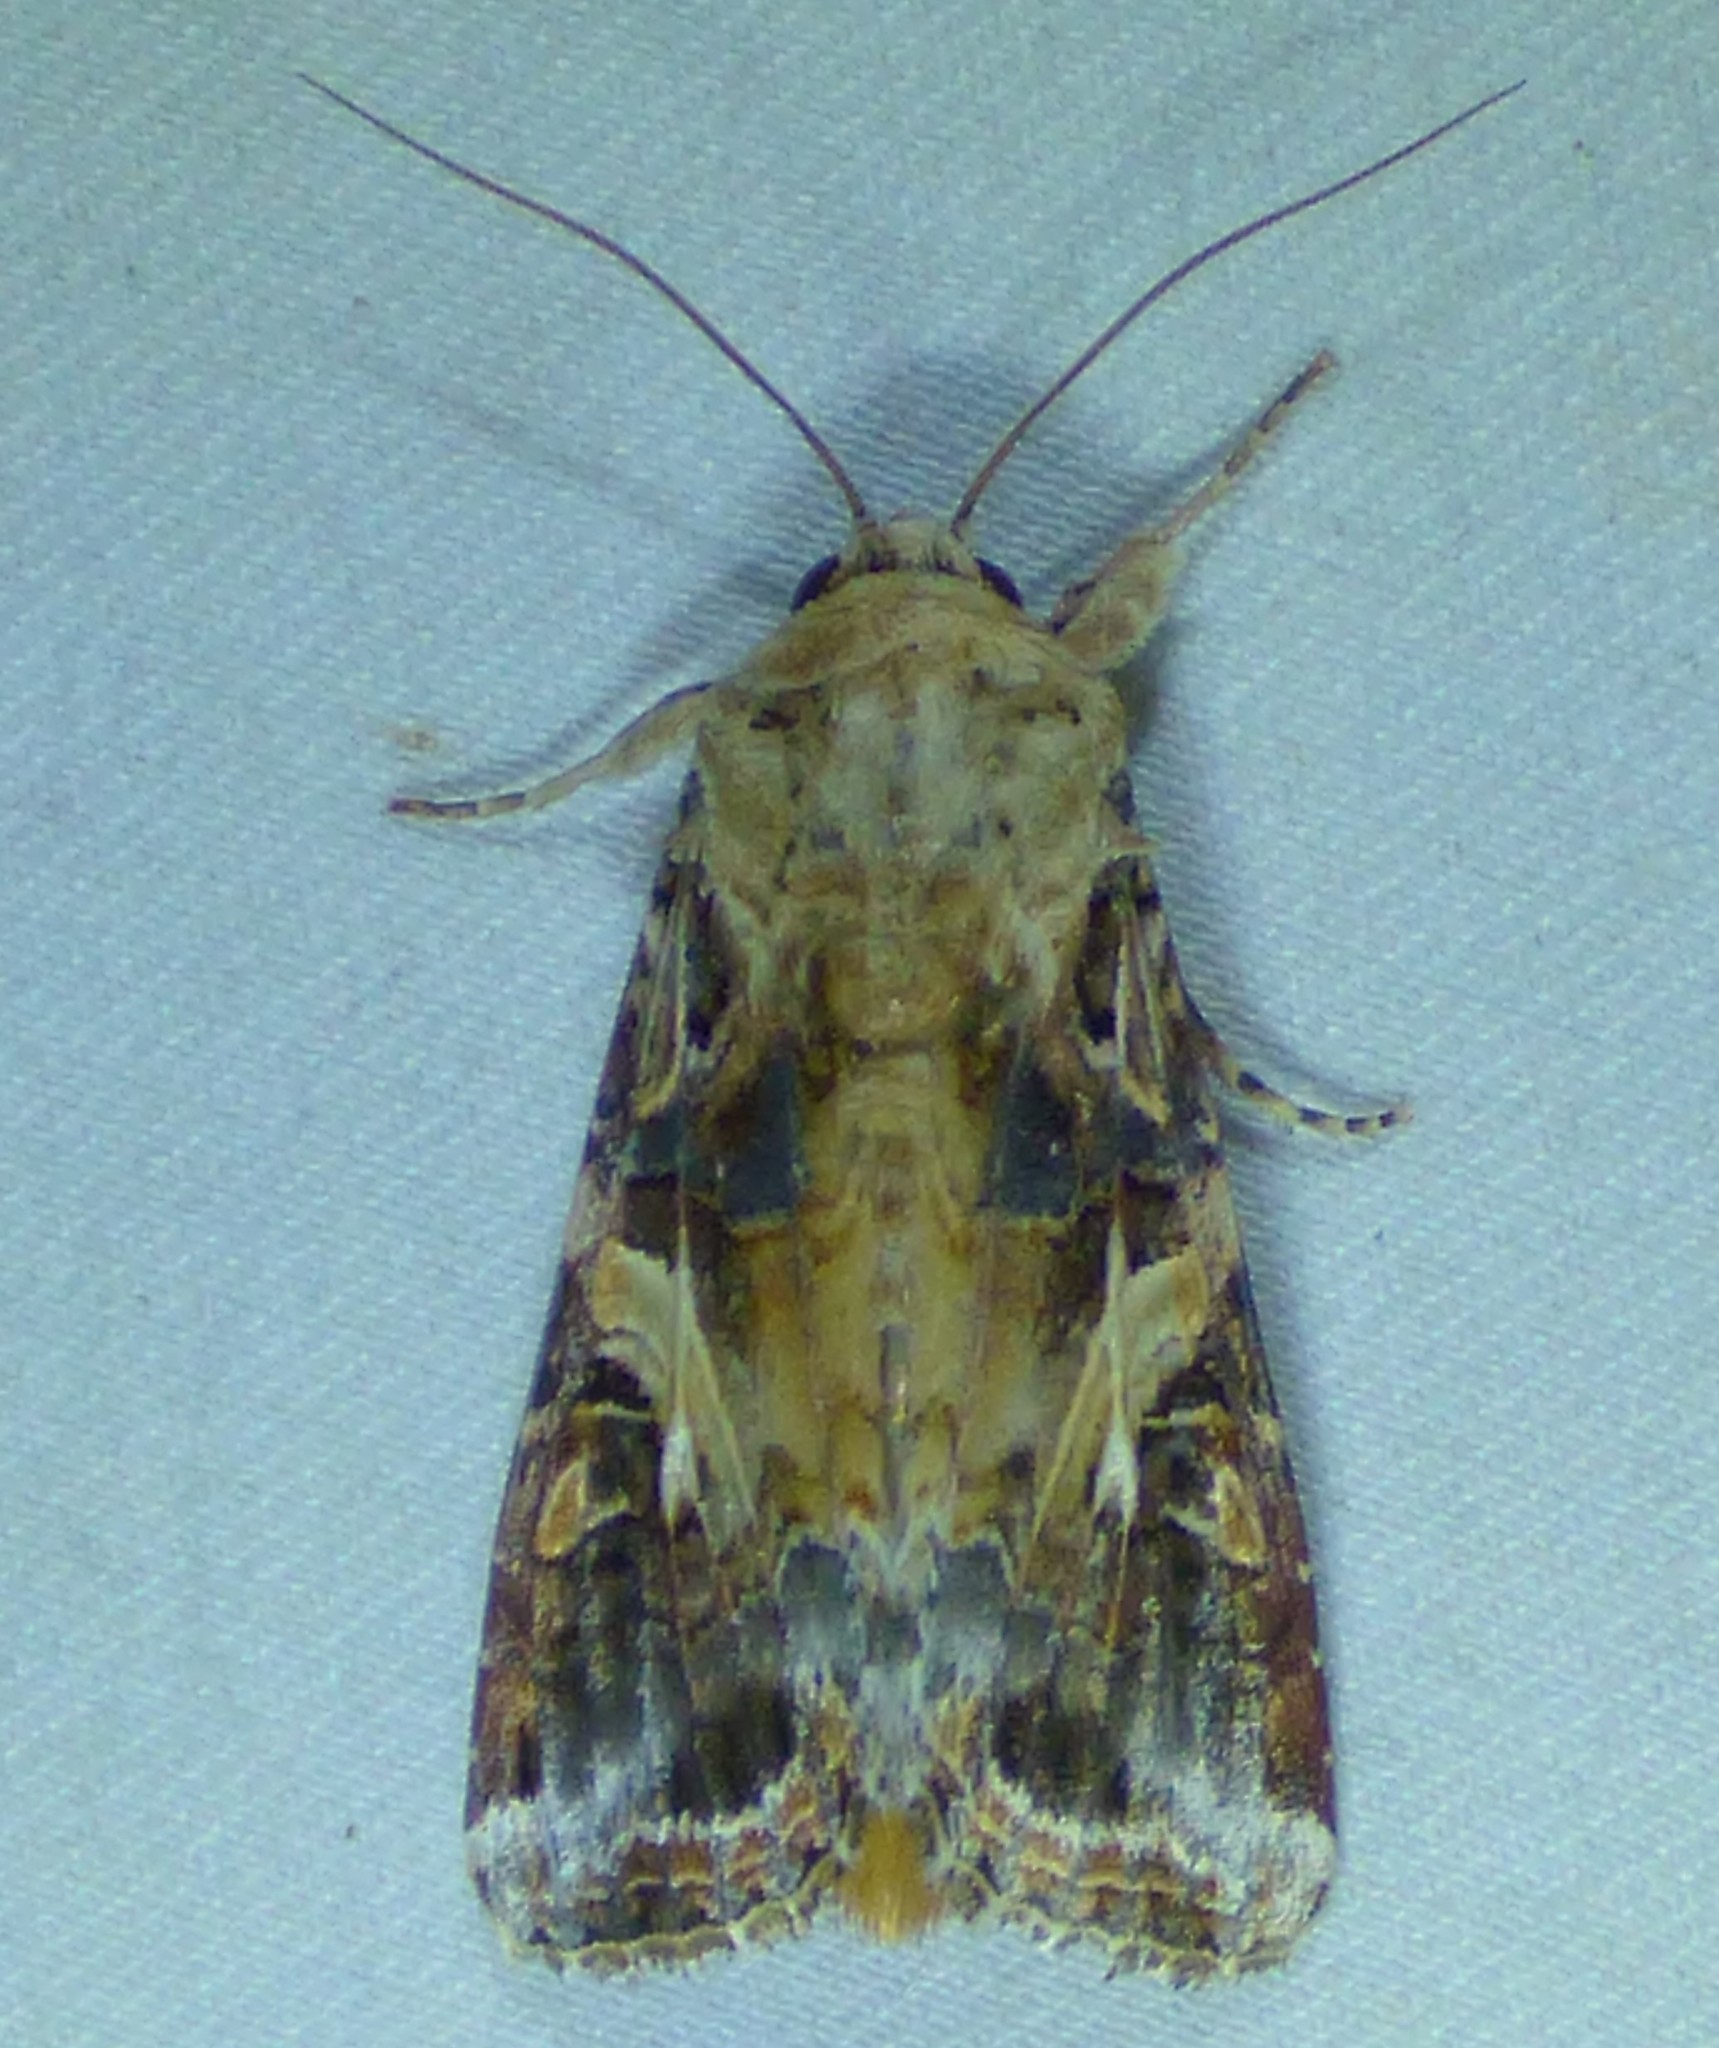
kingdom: Animalia
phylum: Arthropoda
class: Insecta
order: Lepidoptera
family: Noctuidae
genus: Spodoptera
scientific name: Spodoptera ornithogalli
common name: Yellow-striped armyworm
